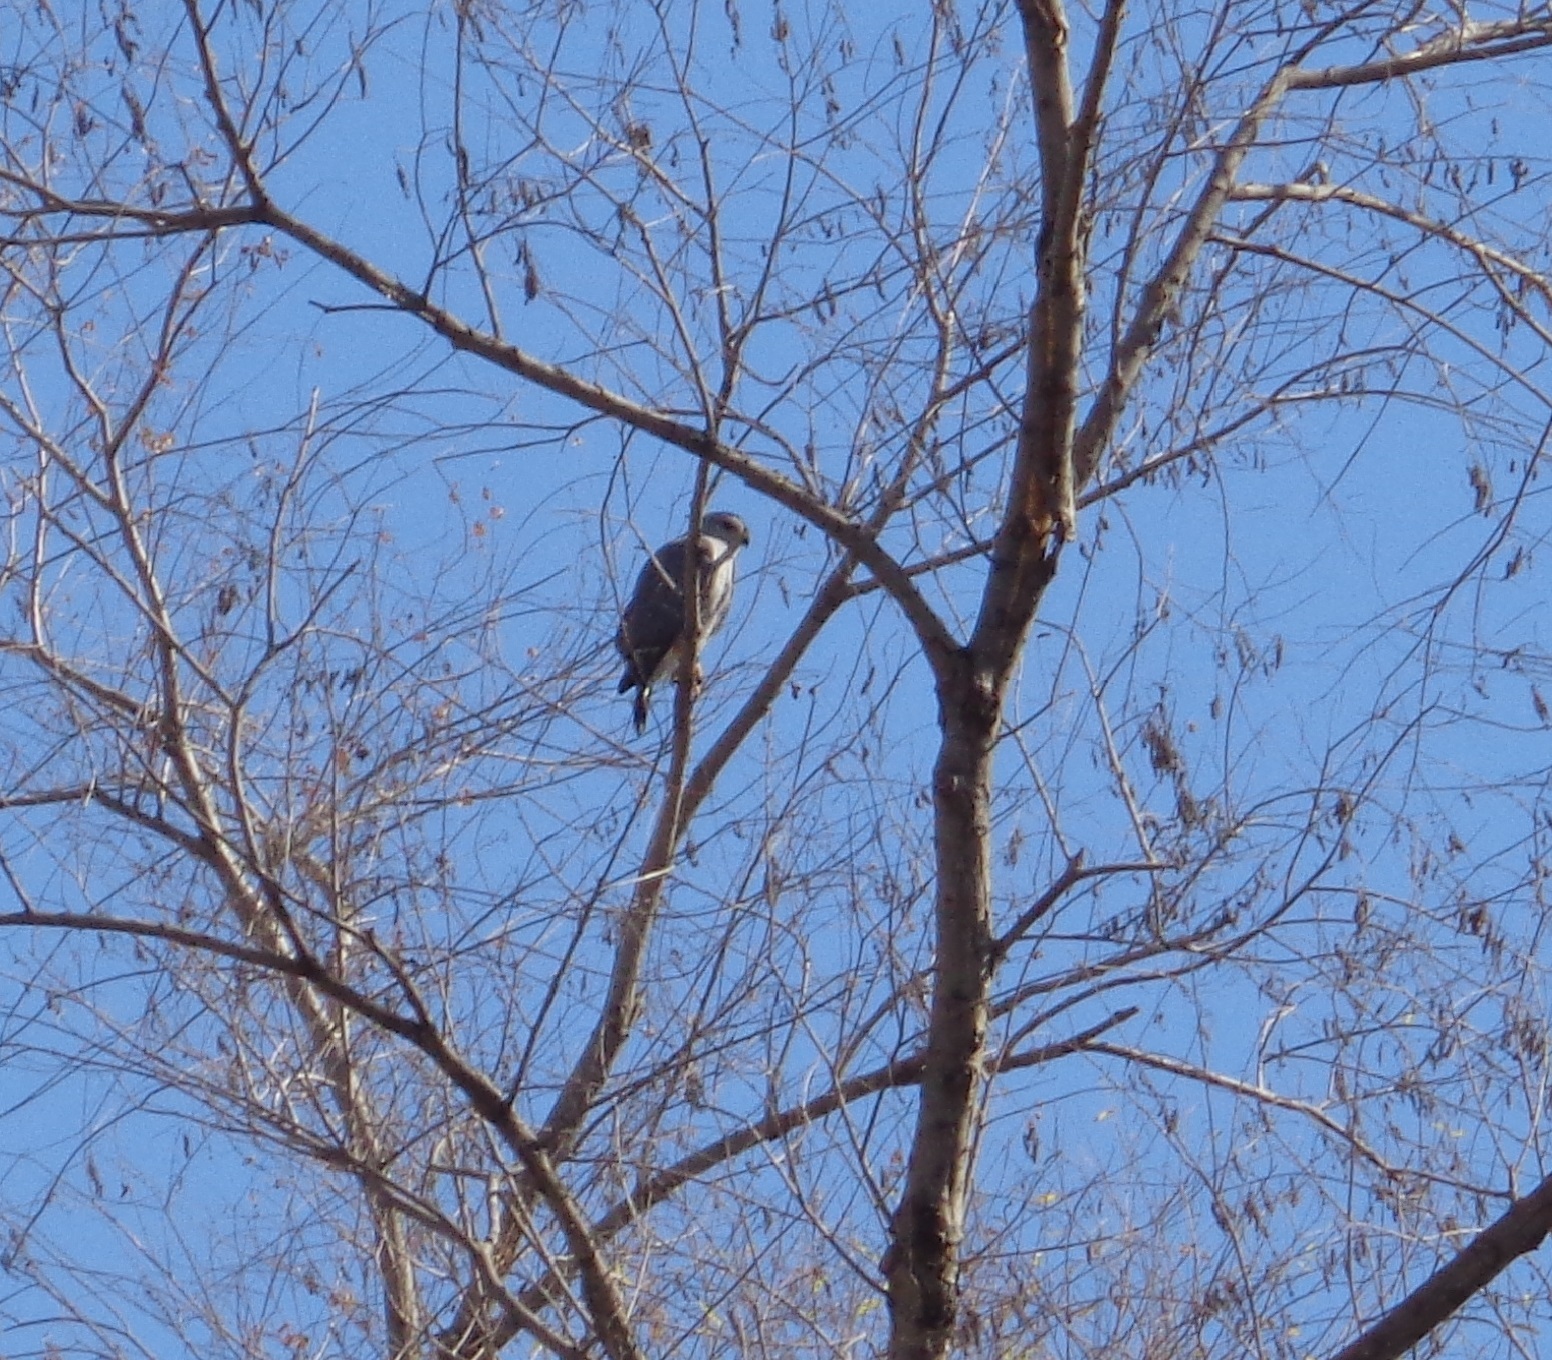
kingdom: Animalia
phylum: Chordata
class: Aves
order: Accipitriformes
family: Accipitridae
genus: Buteo
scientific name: Buteo nitidus
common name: Grey-lined hawk
